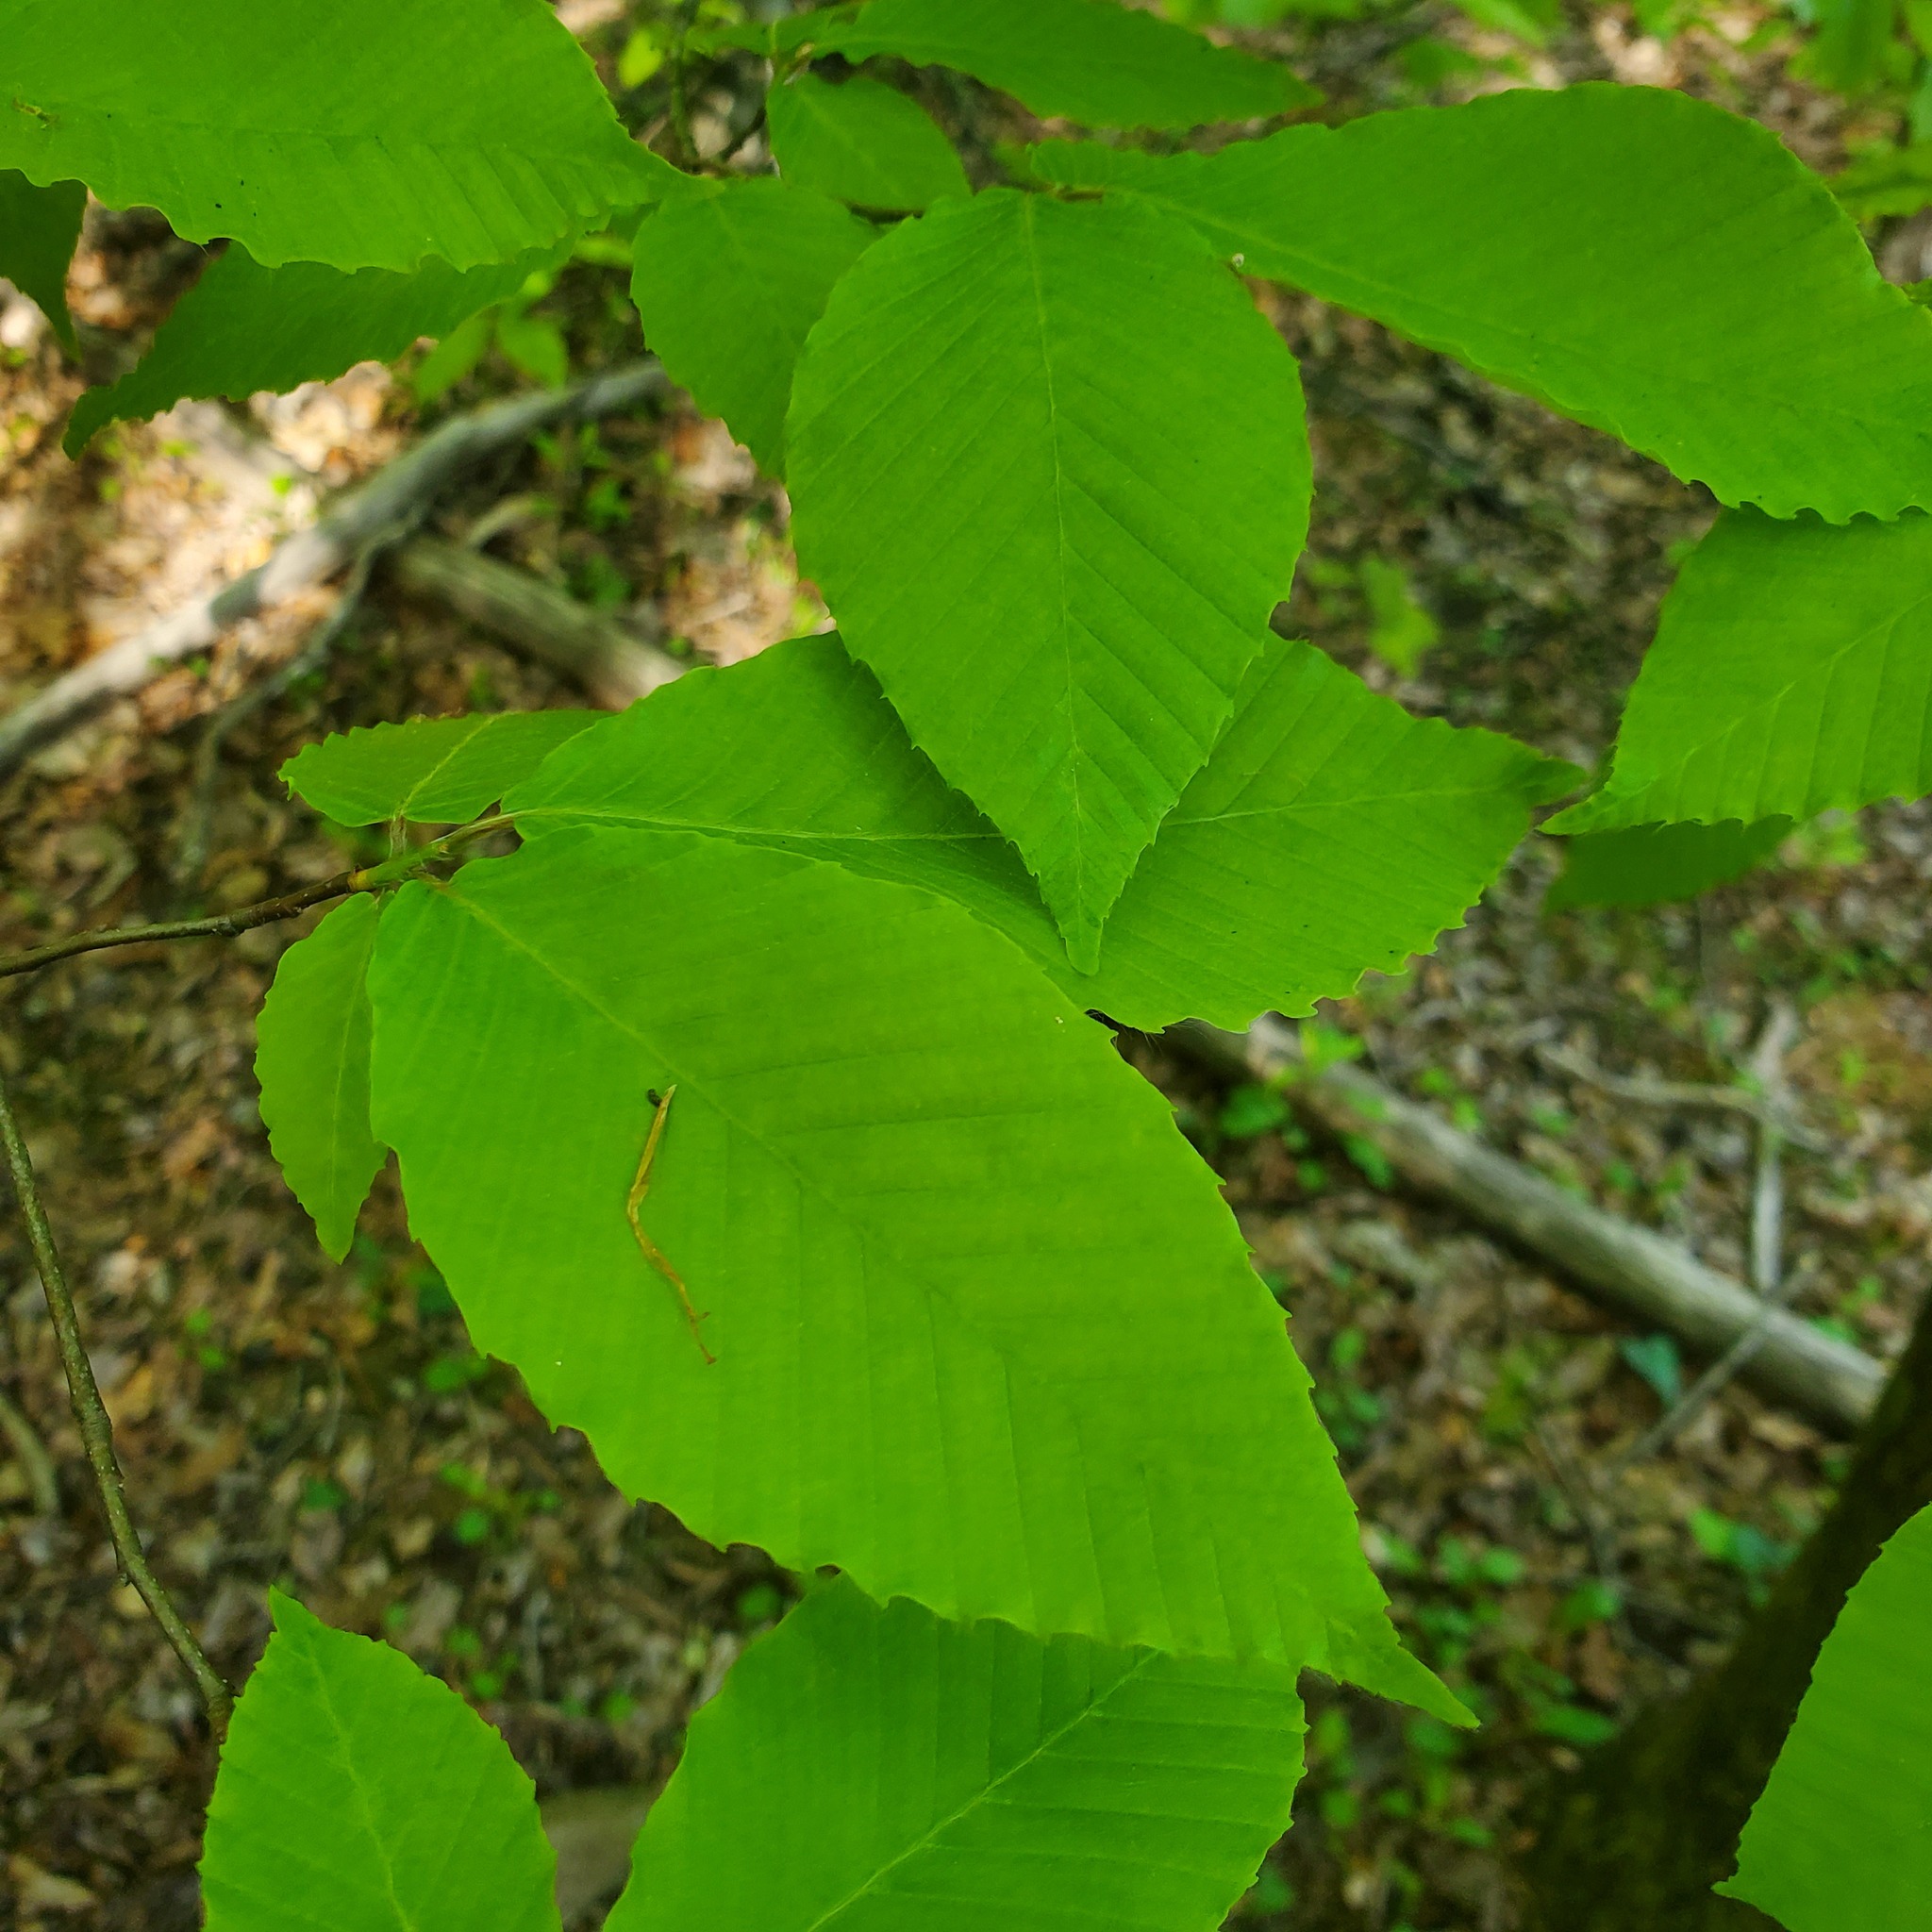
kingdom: Plantae
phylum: Tracheophyta
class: Magnoliopsida
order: Fagales
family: Fagaceae
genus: Fagus
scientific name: Fagus grandifolia
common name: American beech
